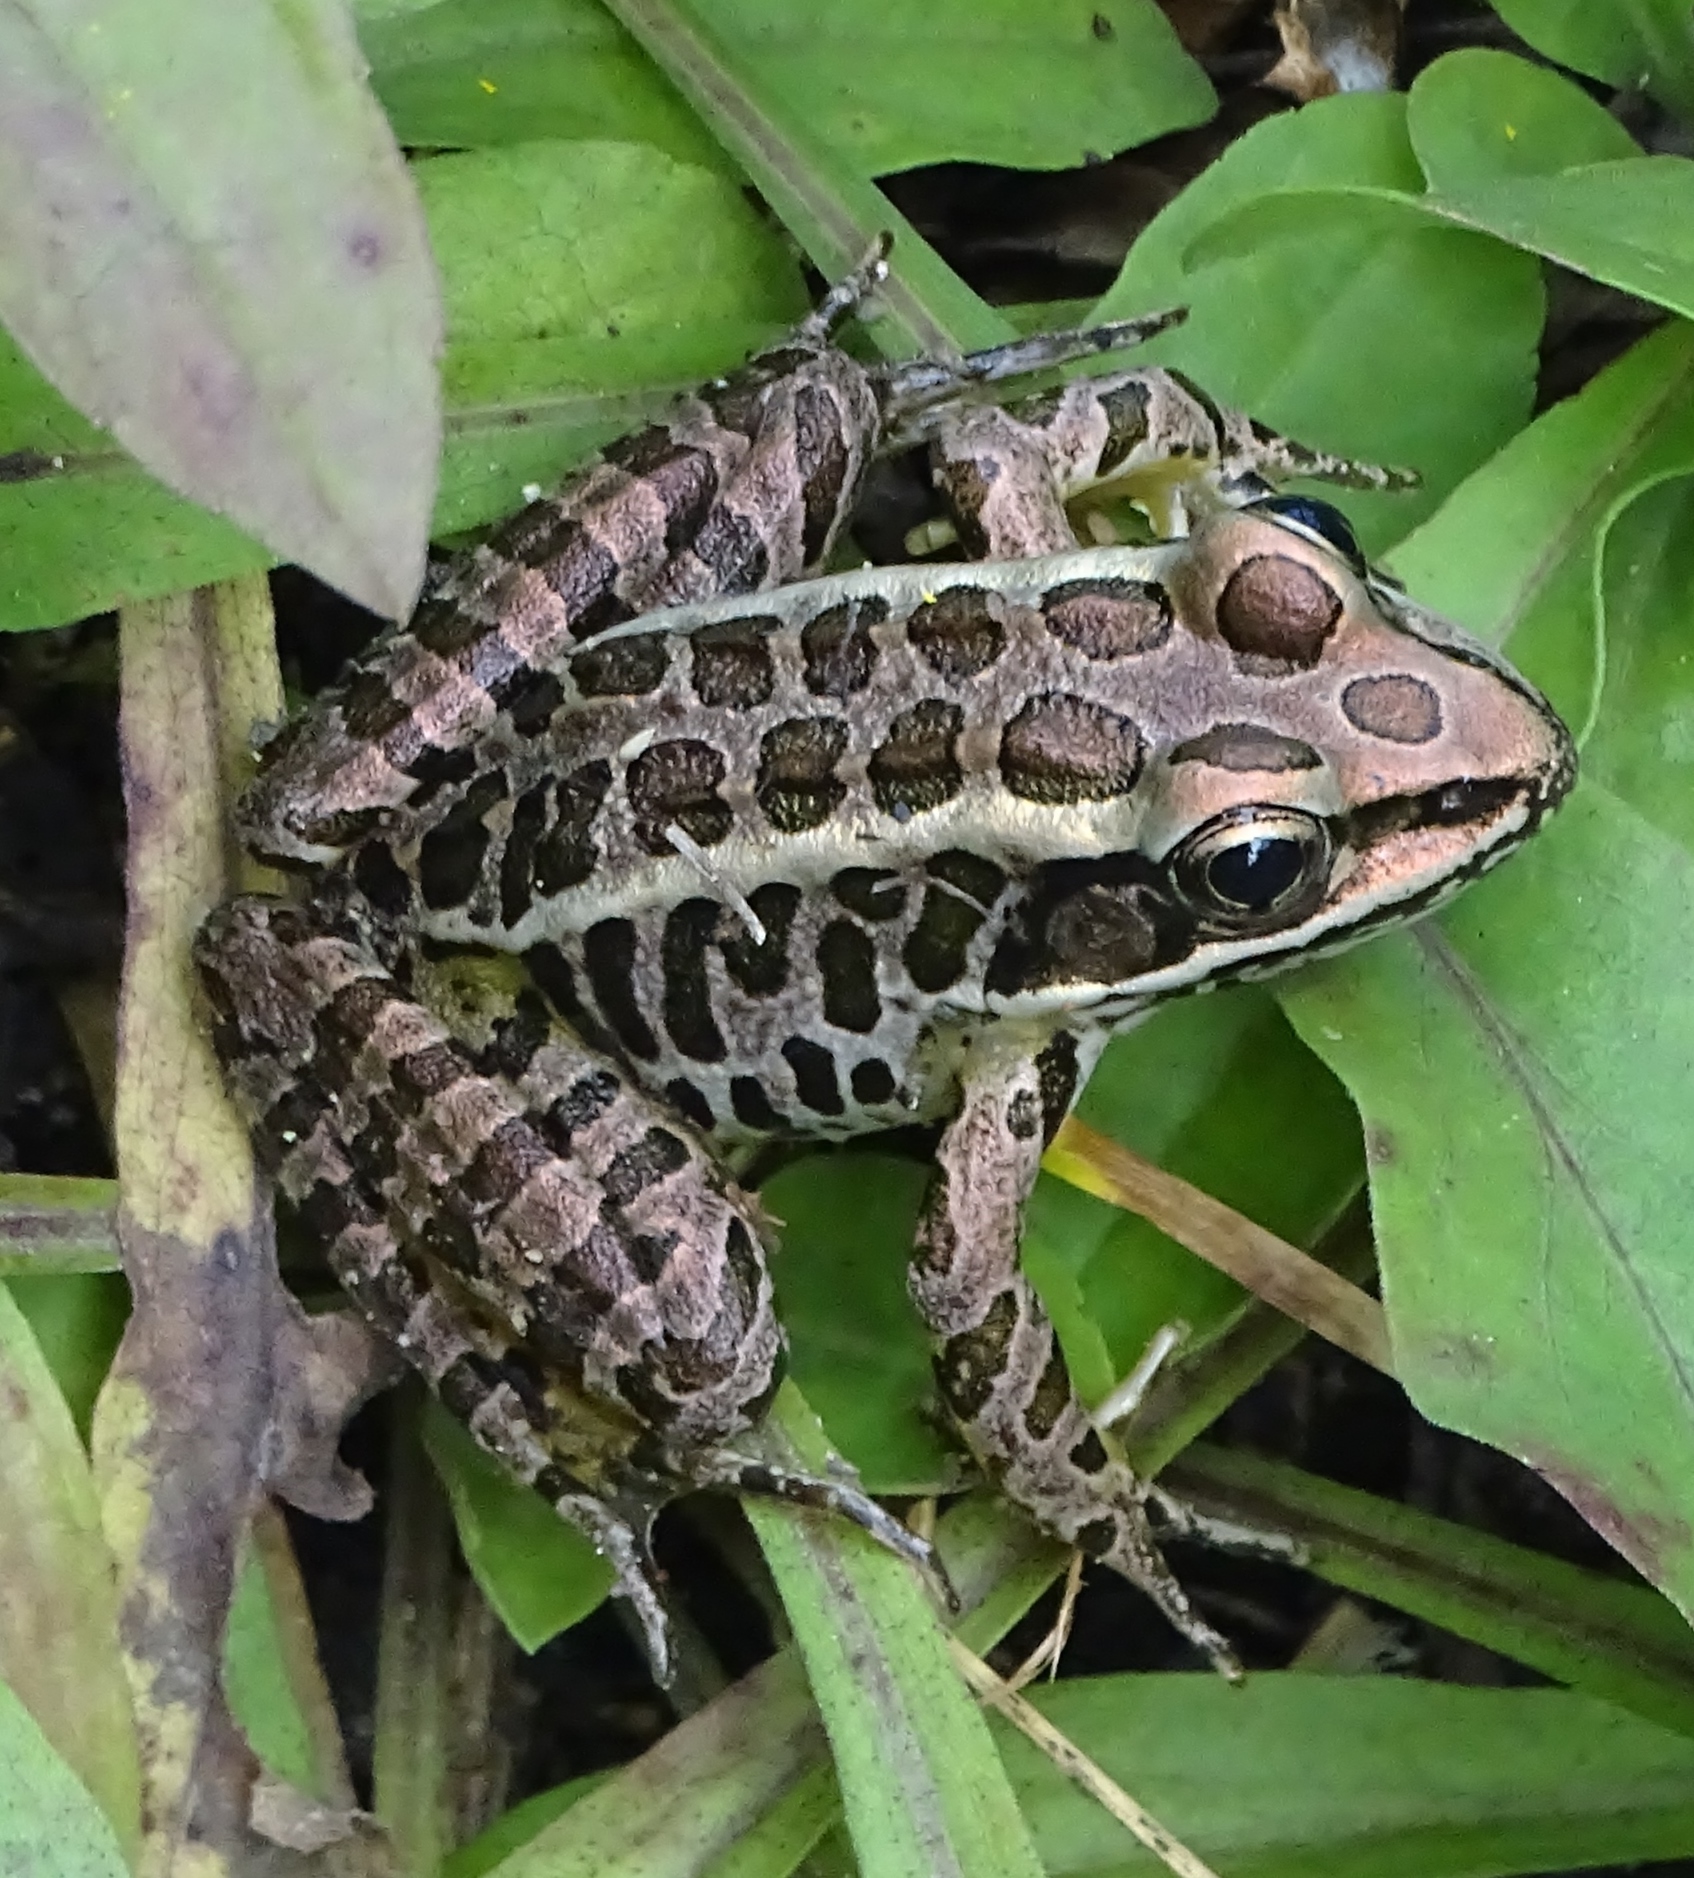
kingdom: Animalia
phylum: Chordata
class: Amphibia
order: Anura
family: Ranidae
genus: Lithobates
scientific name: Lithobates palustris
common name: Pickerel frog
